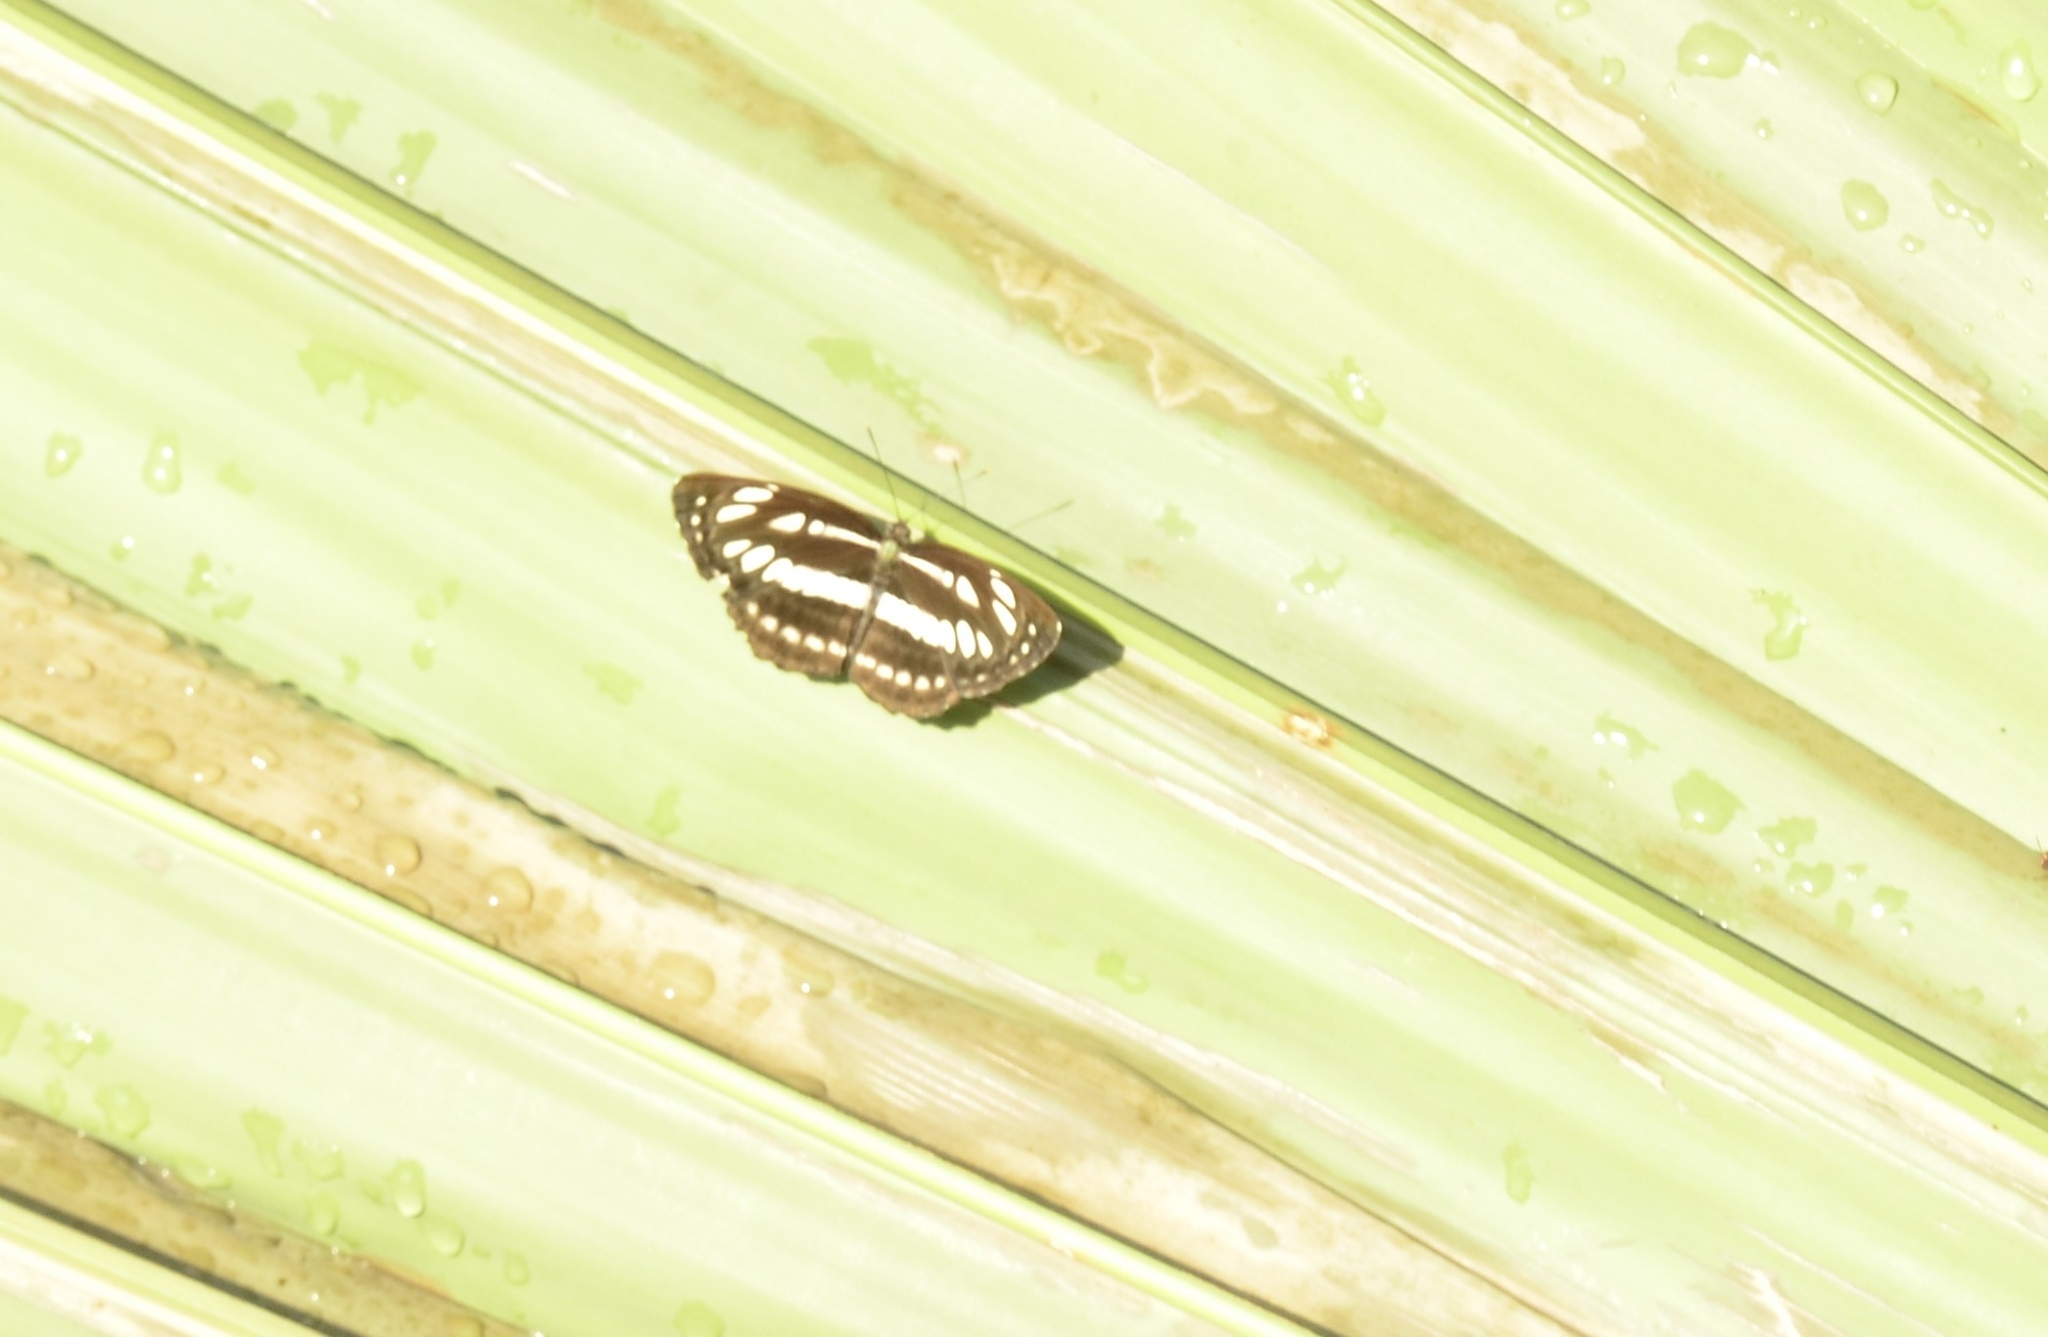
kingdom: Animalia
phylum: Arthropoda
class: Insecta
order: Lepidoptera
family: Nymphalidae
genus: Neptis
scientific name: Neptis hylas
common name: Common sailer
